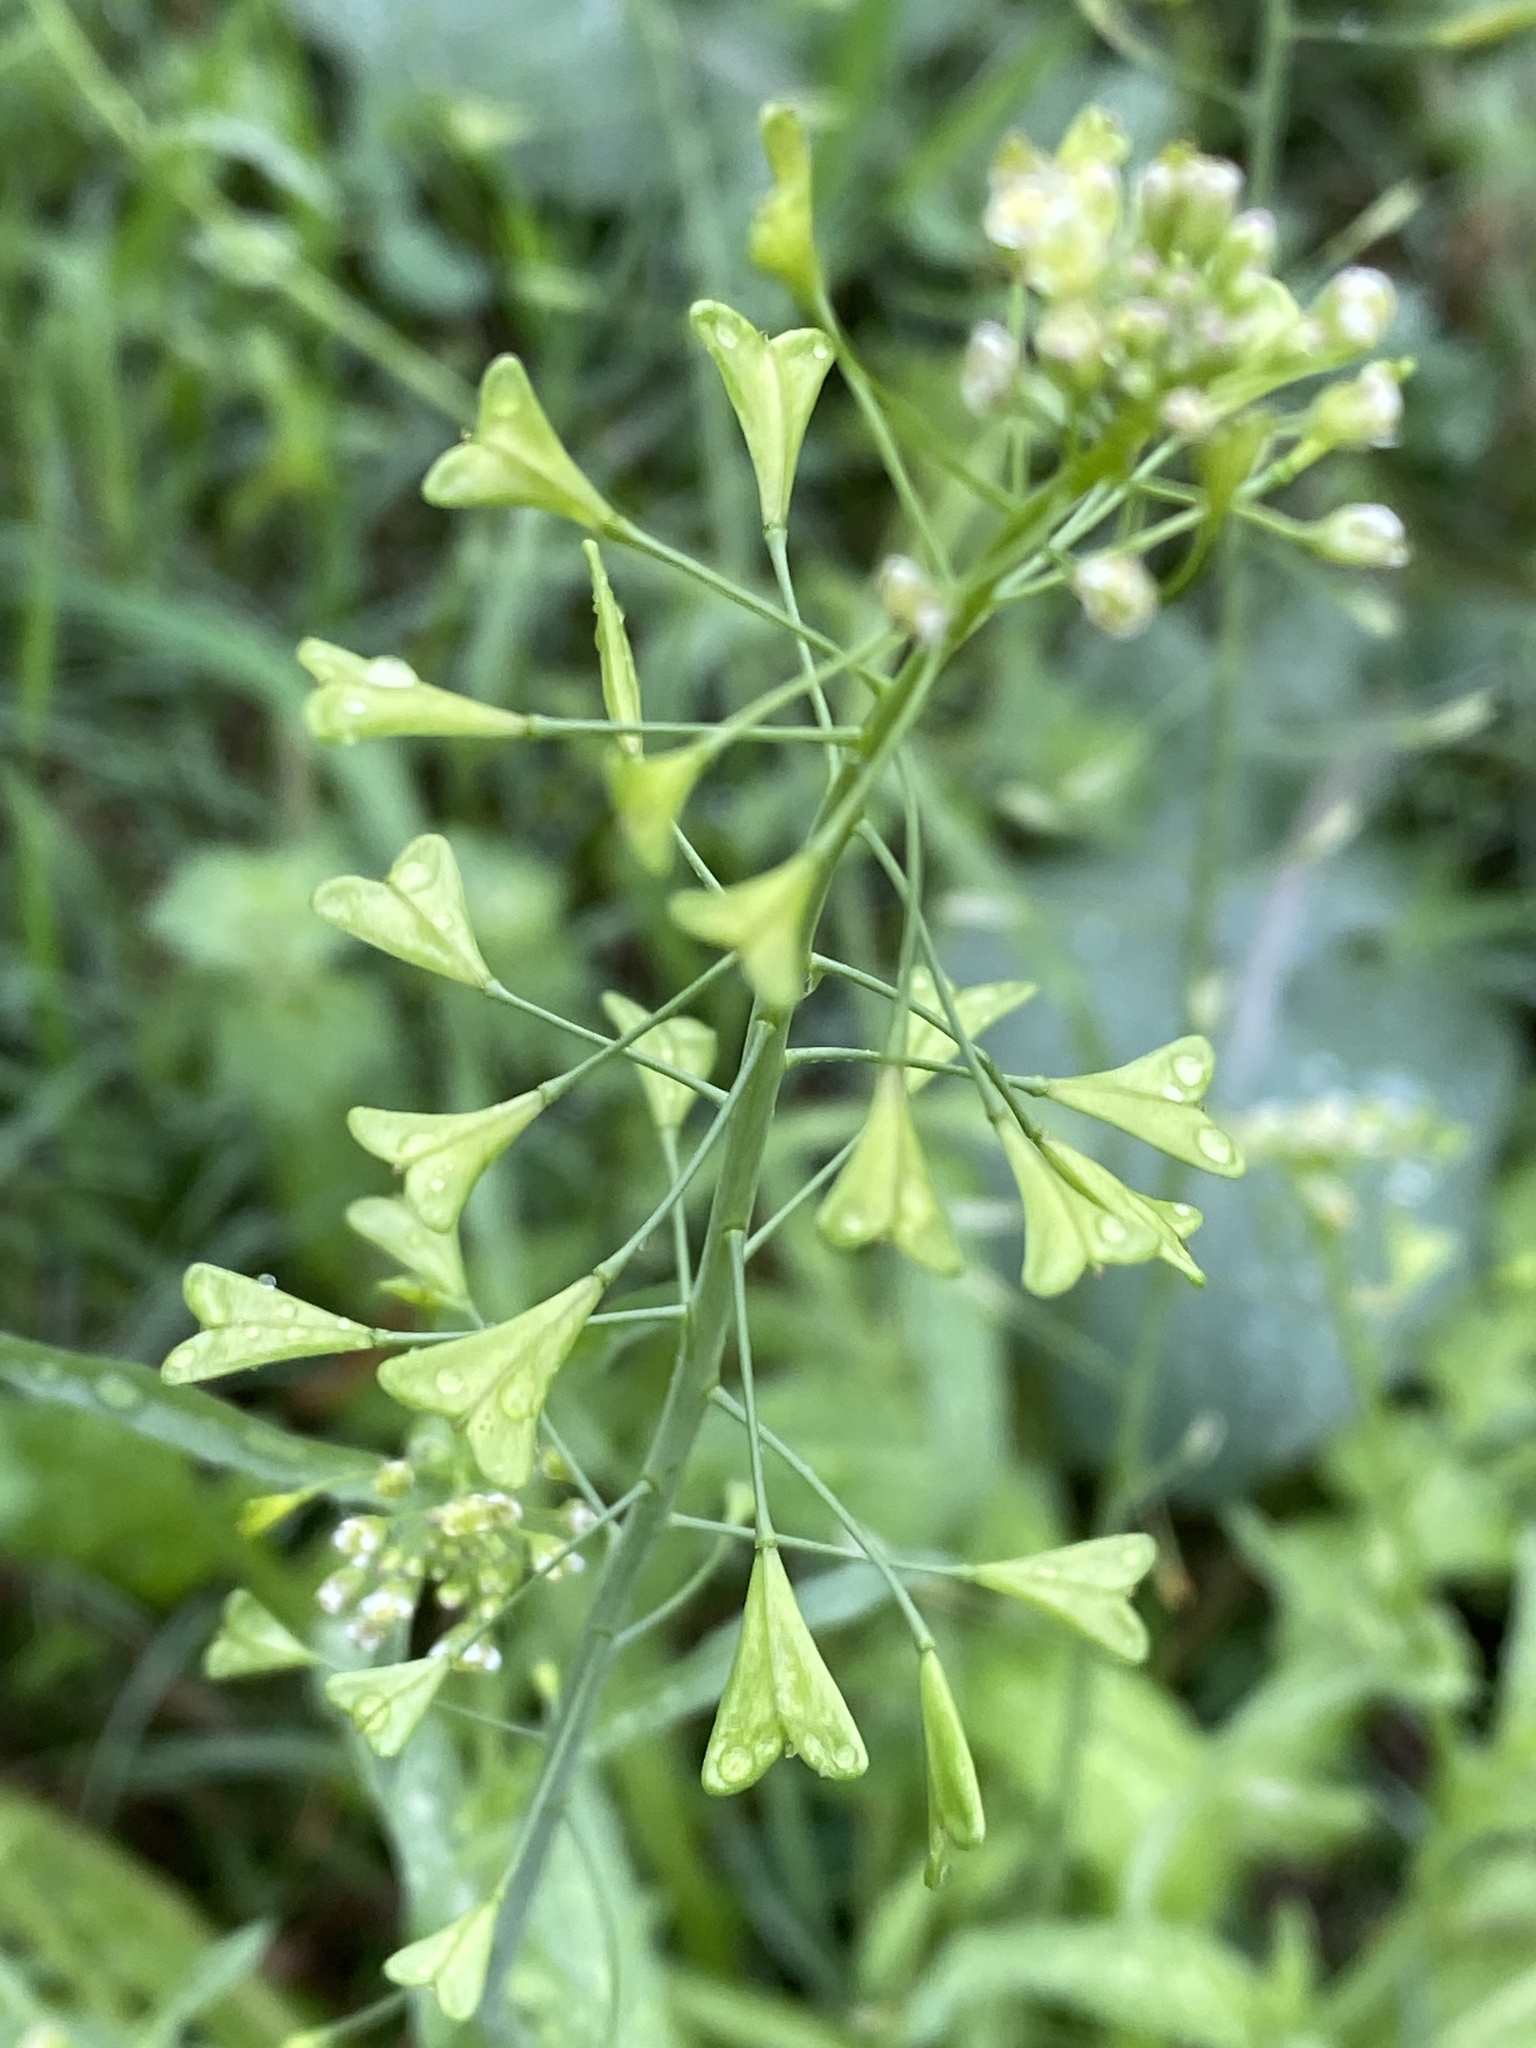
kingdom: Plantae
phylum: Tracheophyta
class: Magnoliopsida
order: Brassicales
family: Brassicaceae
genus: Capsella
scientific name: Capsella bursa-pastoris
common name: Shepherd's purse
